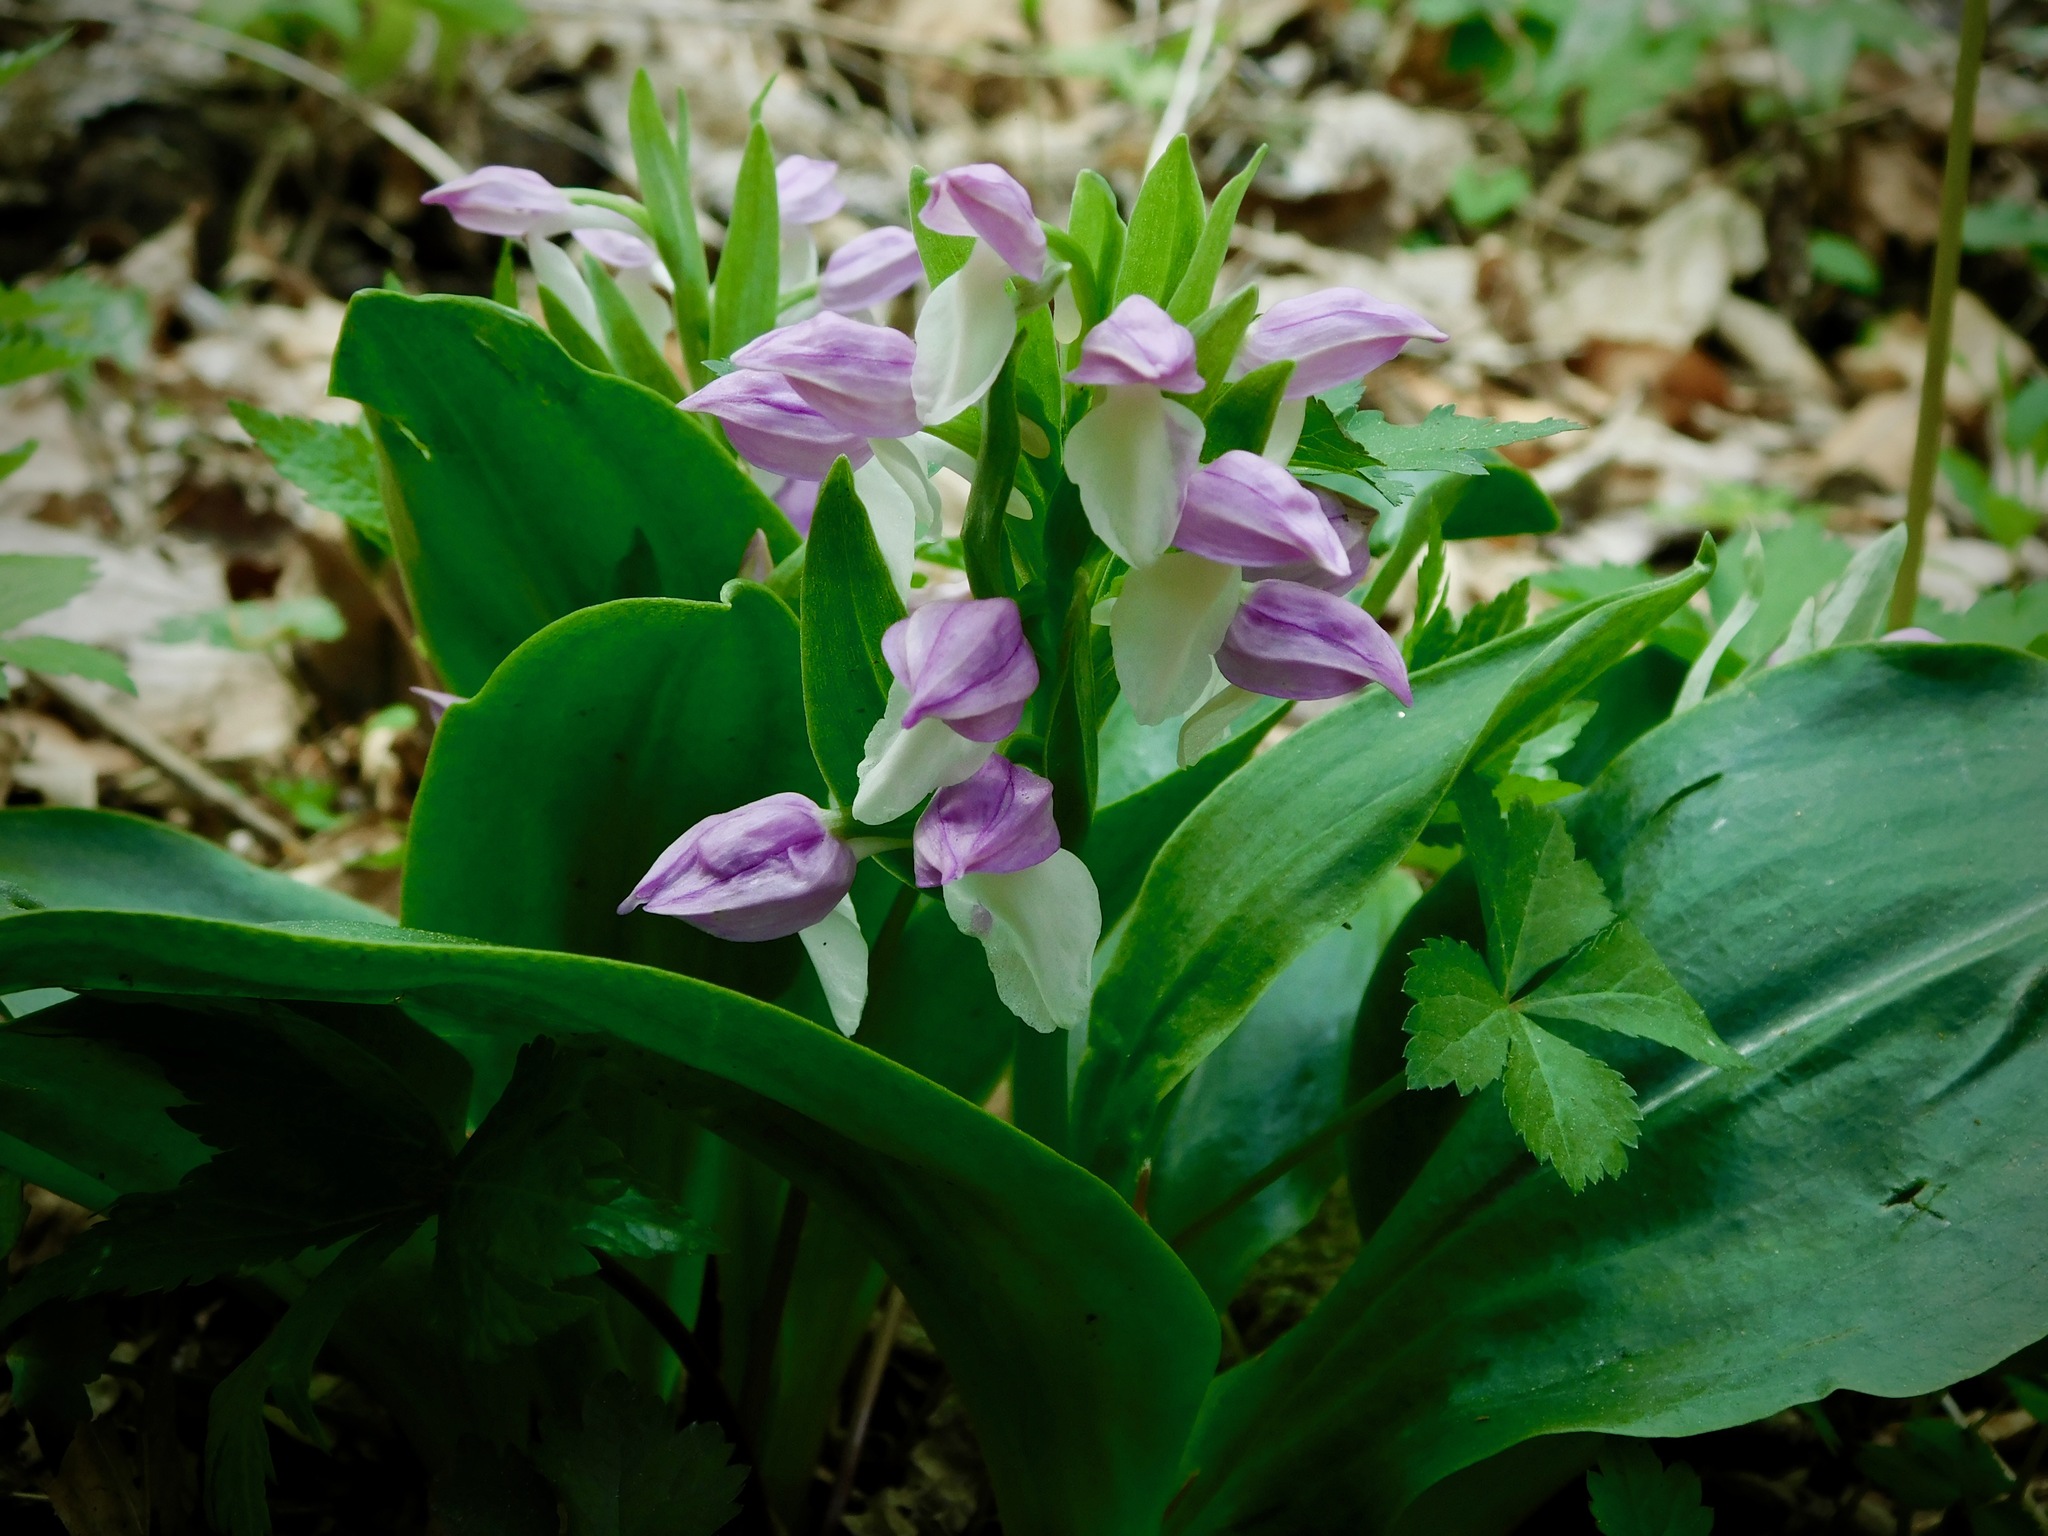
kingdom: Plantae
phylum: Tracheophyta
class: Liliopsida
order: Asparagales
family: Orchidaceae
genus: Galearis
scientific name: Galearis spectabilis
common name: Purple-hooded orchis
